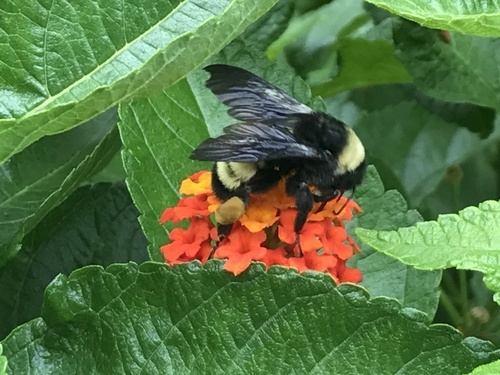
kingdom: Animalia
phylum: Arthropoda
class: Insecta
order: Hymenoptera
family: Apidae
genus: Bombus
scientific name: Bombus griseocollis
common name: Brown-belted bumble bee
